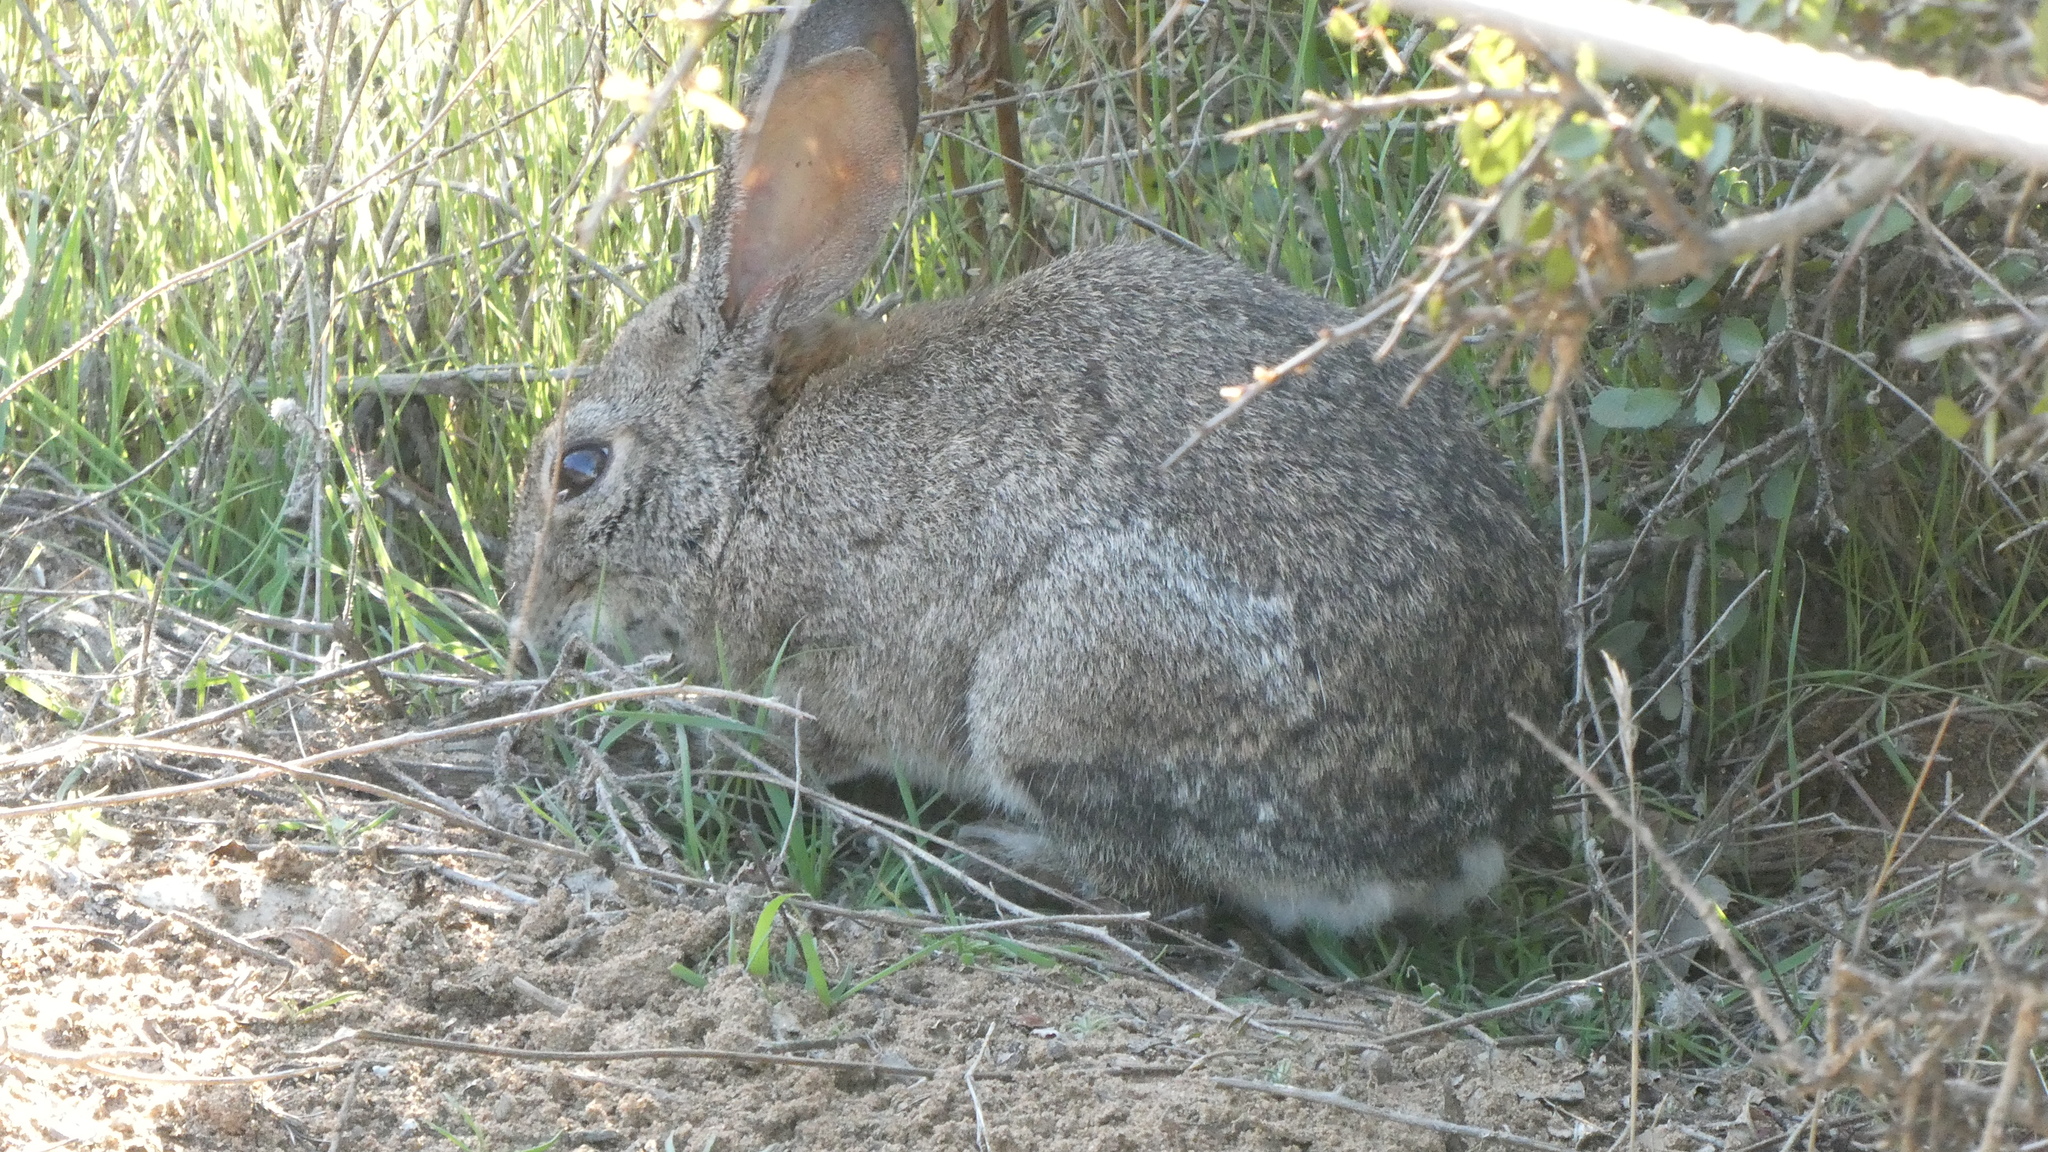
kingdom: Animalia
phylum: Chordata
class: Mammalia
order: Lagomorpha
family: Leporidae
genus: Sylvilagus
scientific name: Sylvilagus bachmani
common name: Brush rabbit
